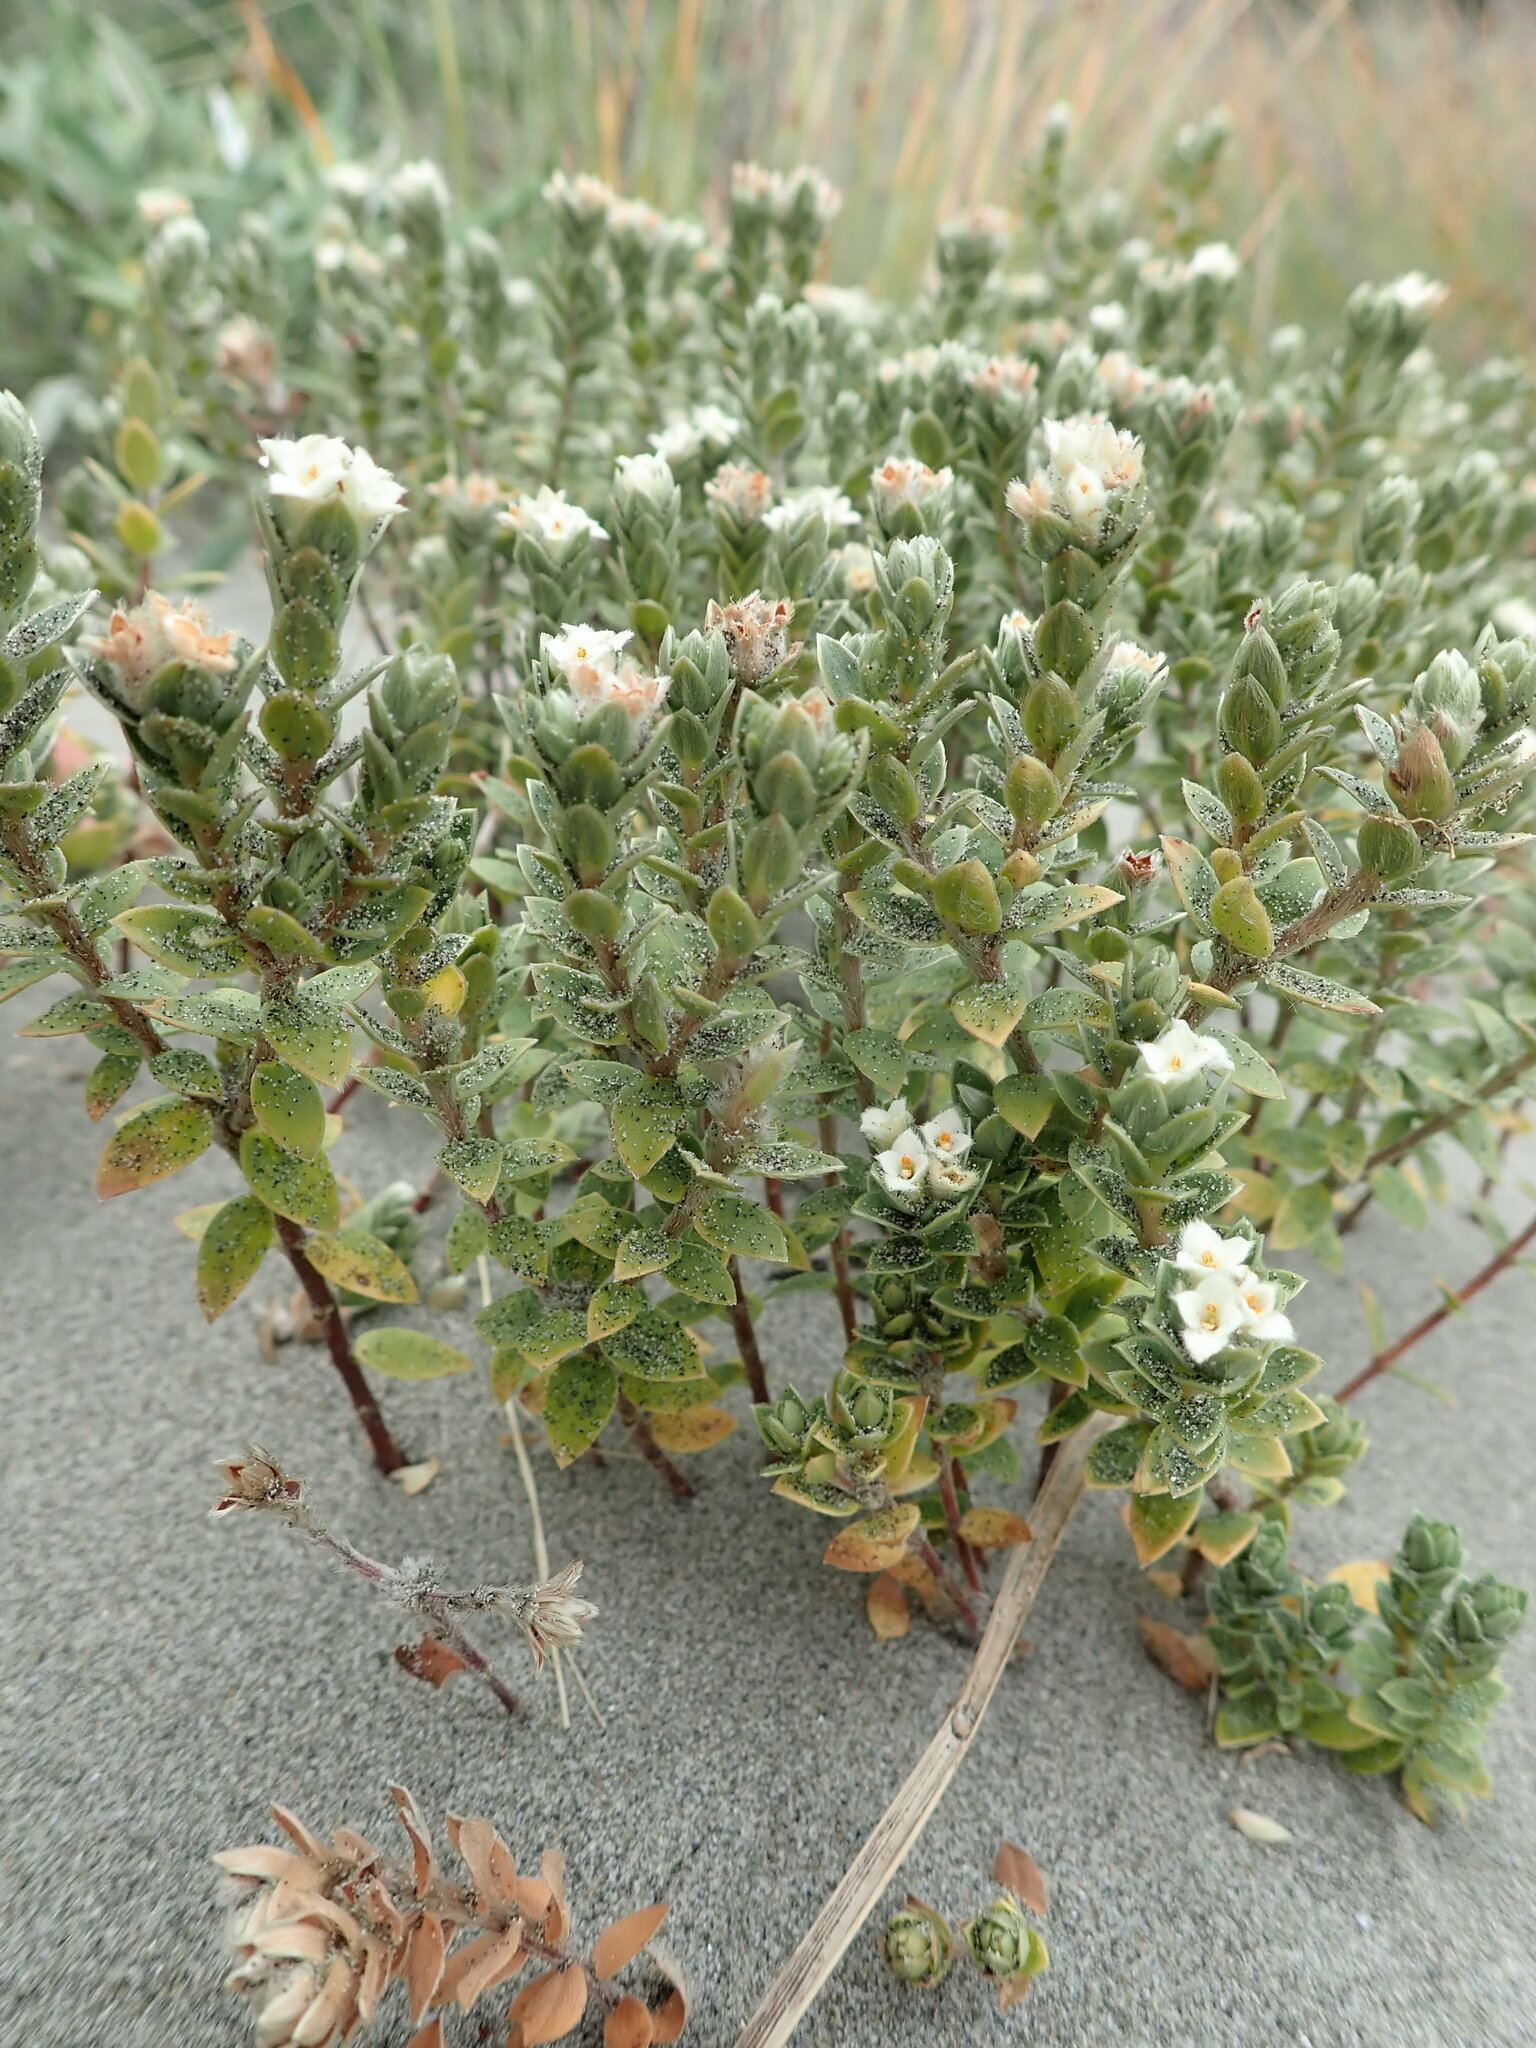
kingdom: Plantae
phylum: Tracheophyta
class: Magnoliopsida
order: Malvales
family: Thymelaeaceae
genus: Pimelea
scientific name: Pimelea villosa
